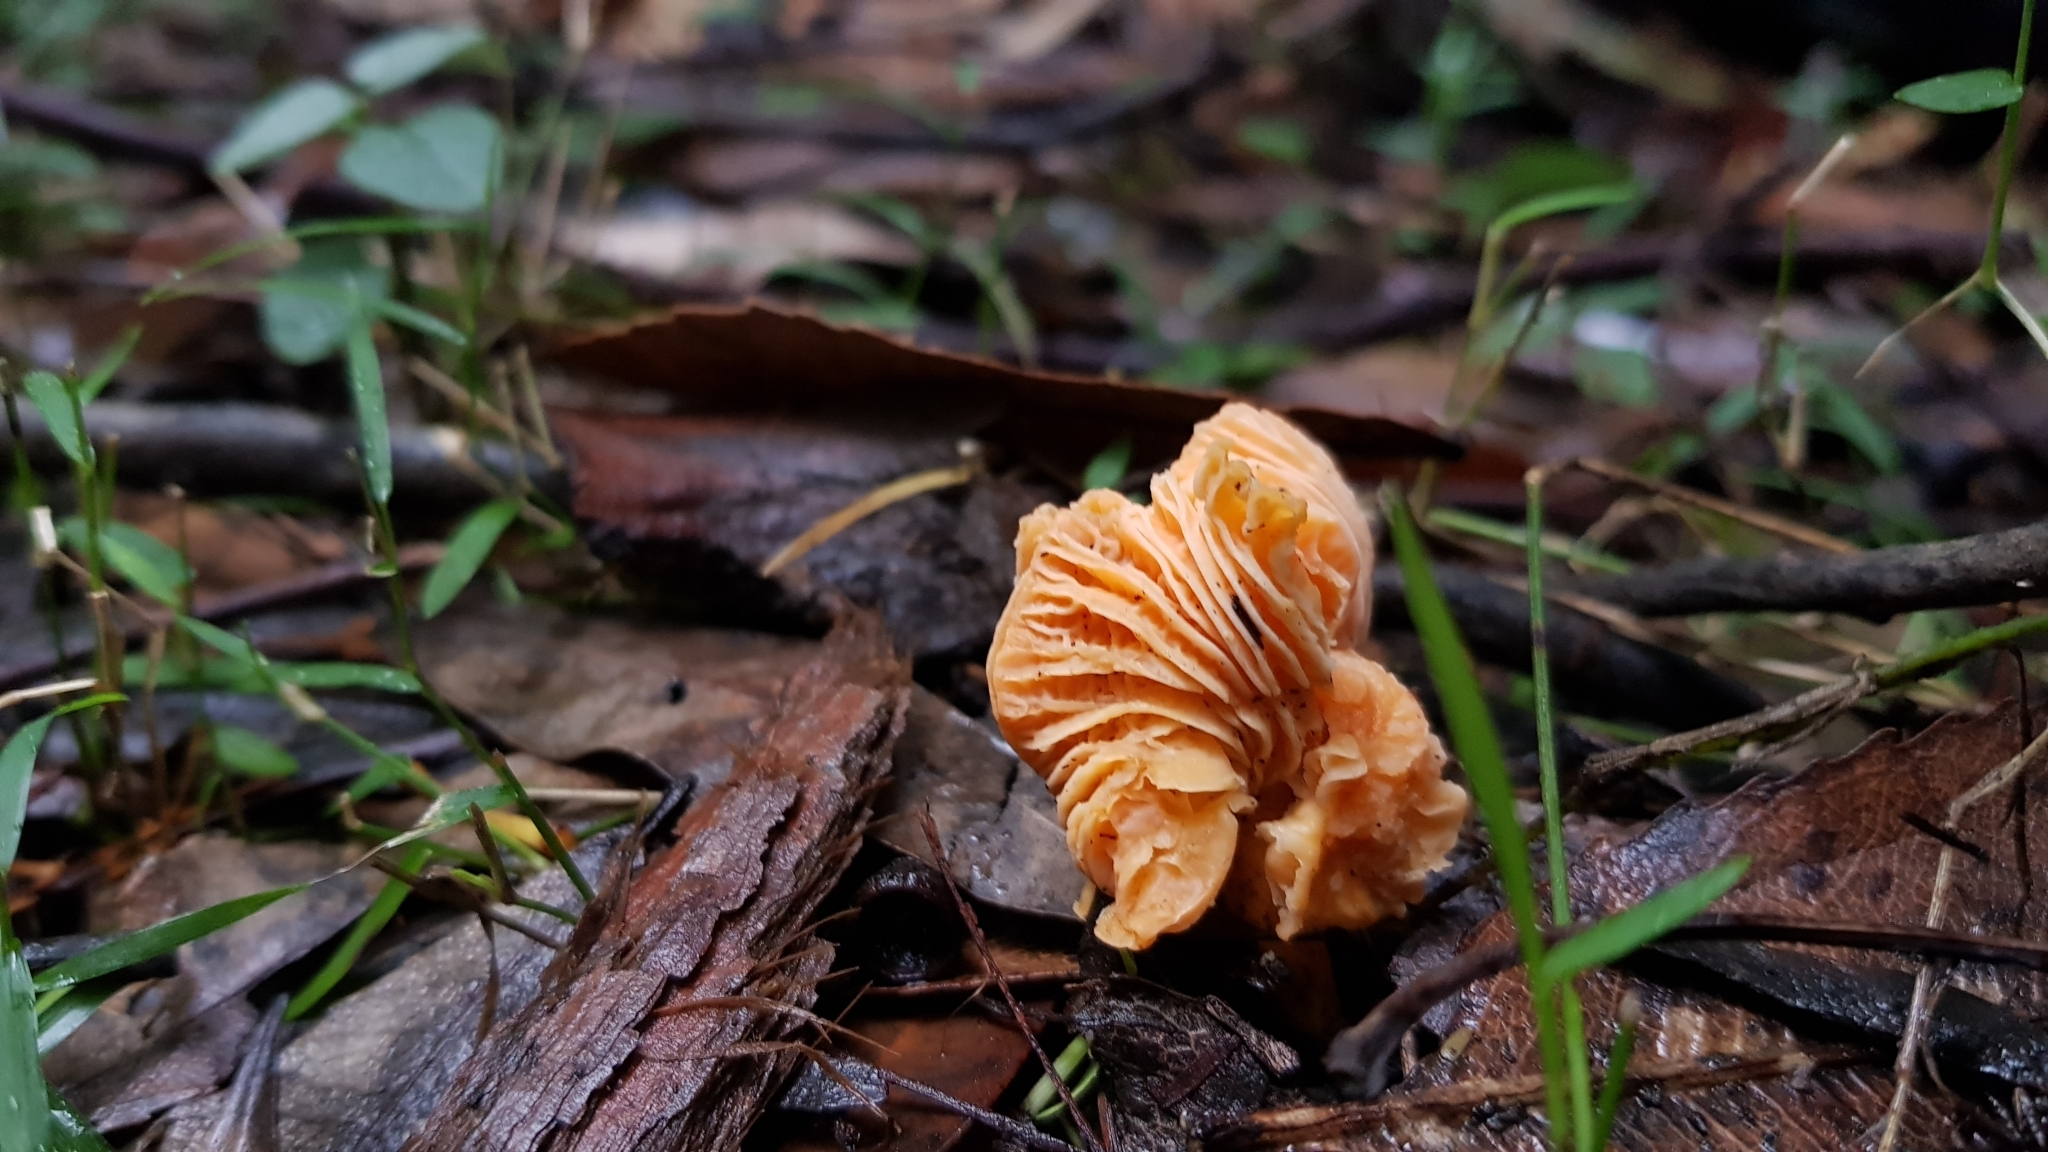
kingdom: Fungi
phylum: Basidiomycota
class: Agaricomycetes
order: Cantharellales
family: Hydnaceae
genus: Cantharellus
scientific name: Cantharellus
